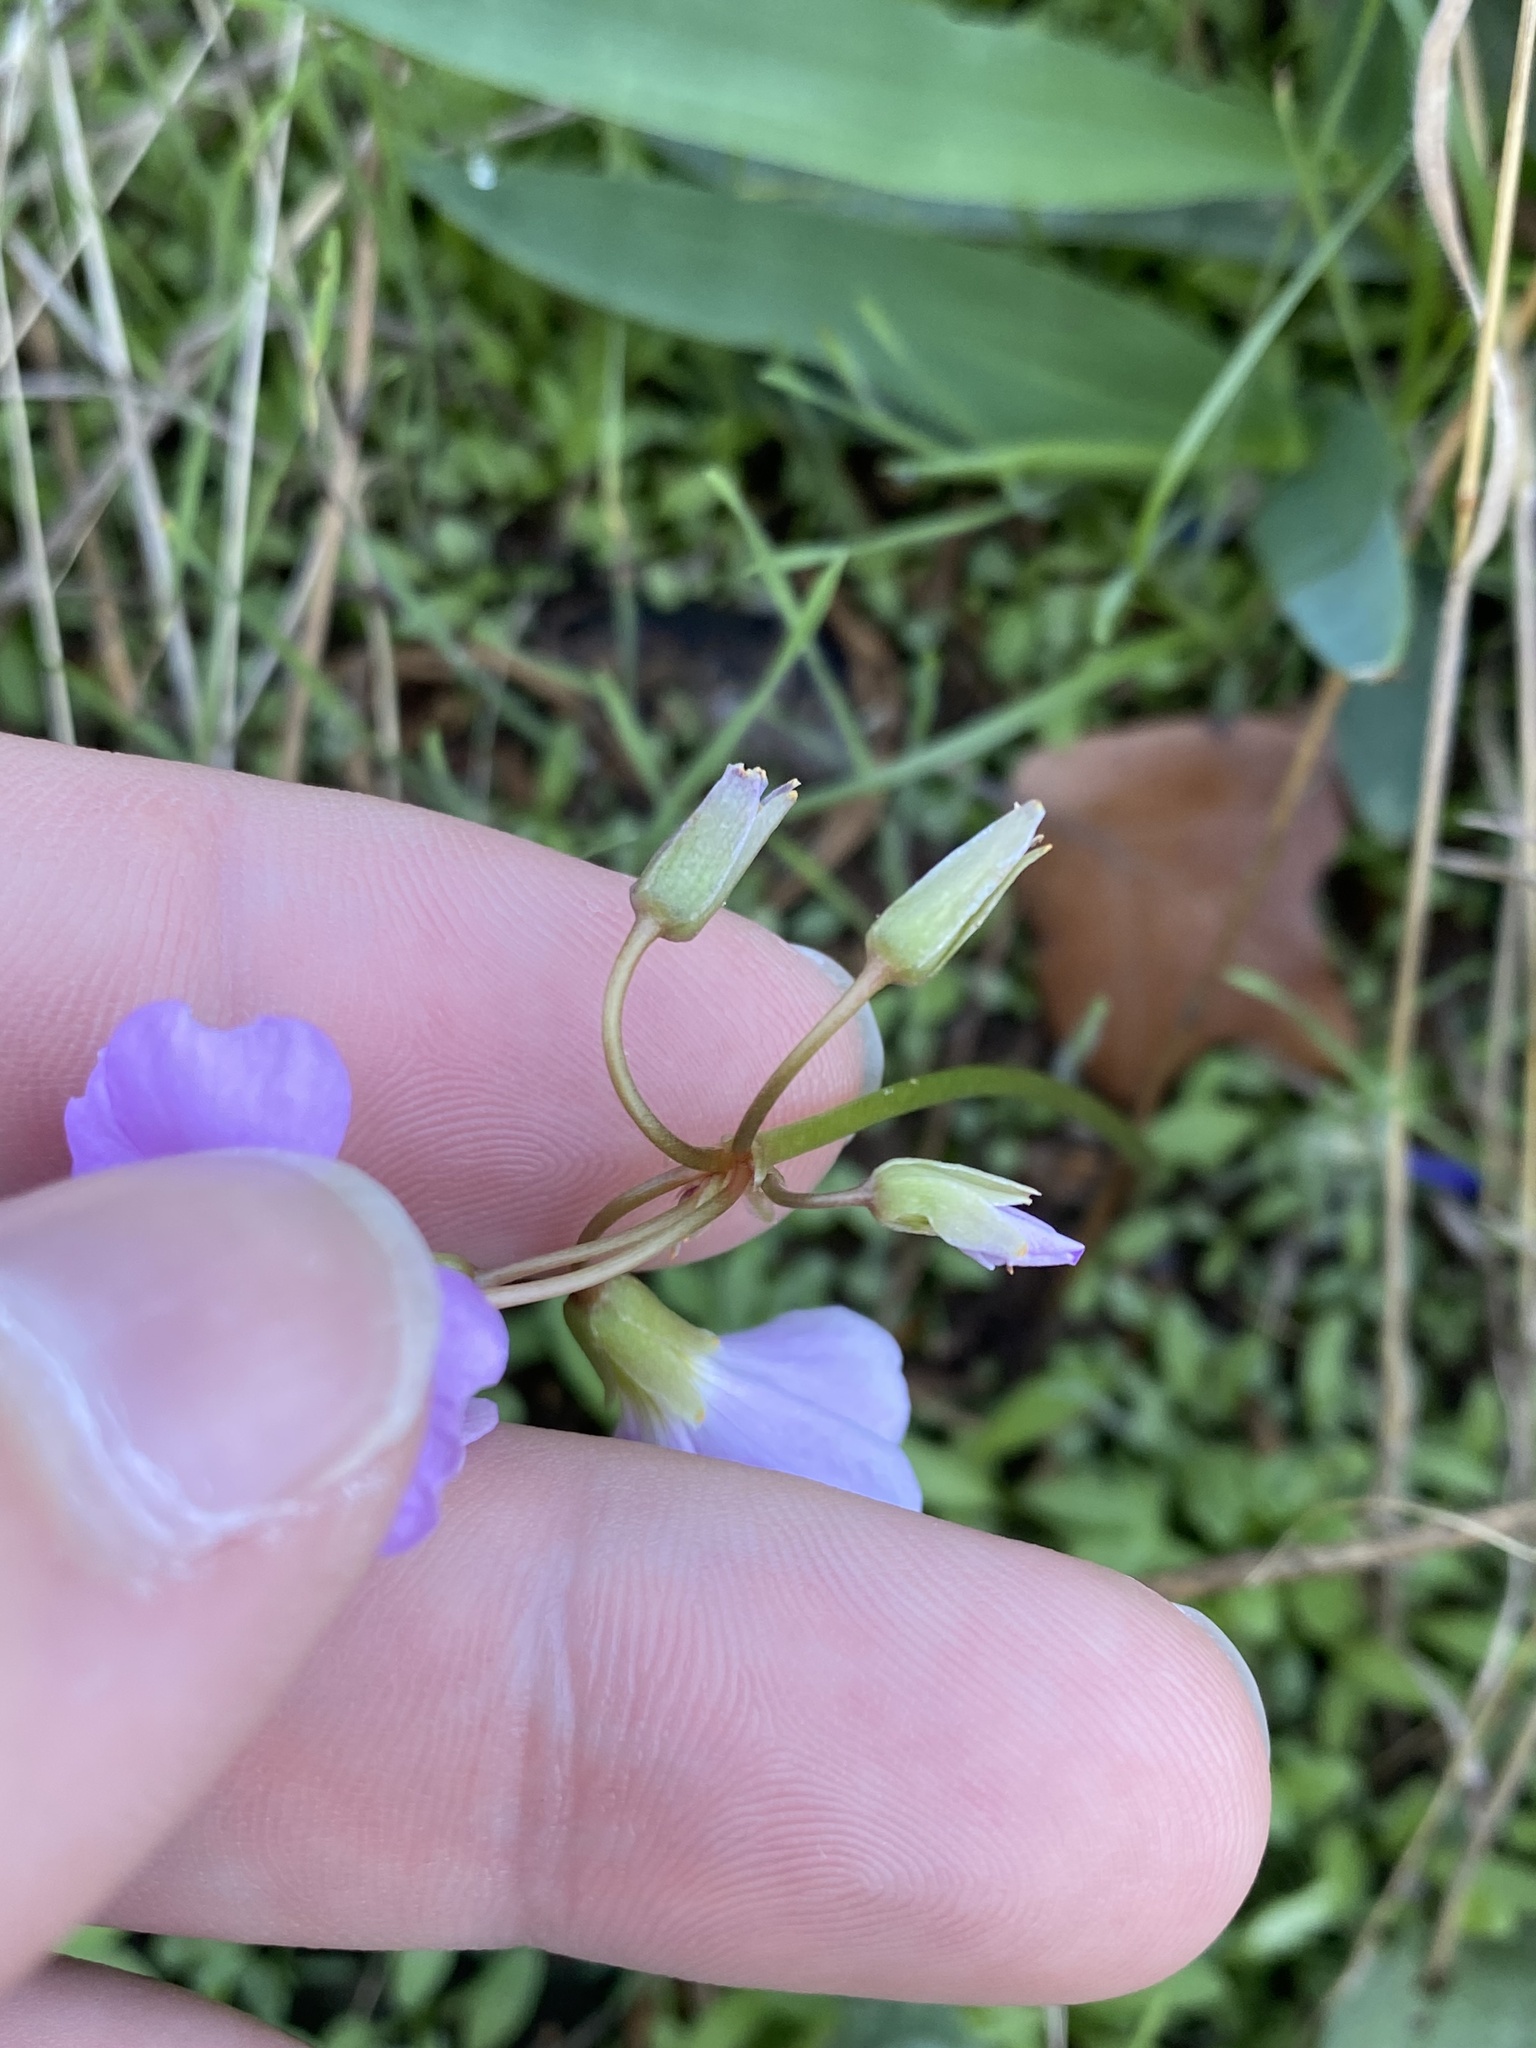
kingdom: Plantae
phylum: Tracheophyta
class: Magnoliopsida
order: Oxalidales
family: Oxalidaceae
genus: Oxalis
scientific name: Oxalis violacea
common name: Violet wood-sorrel
